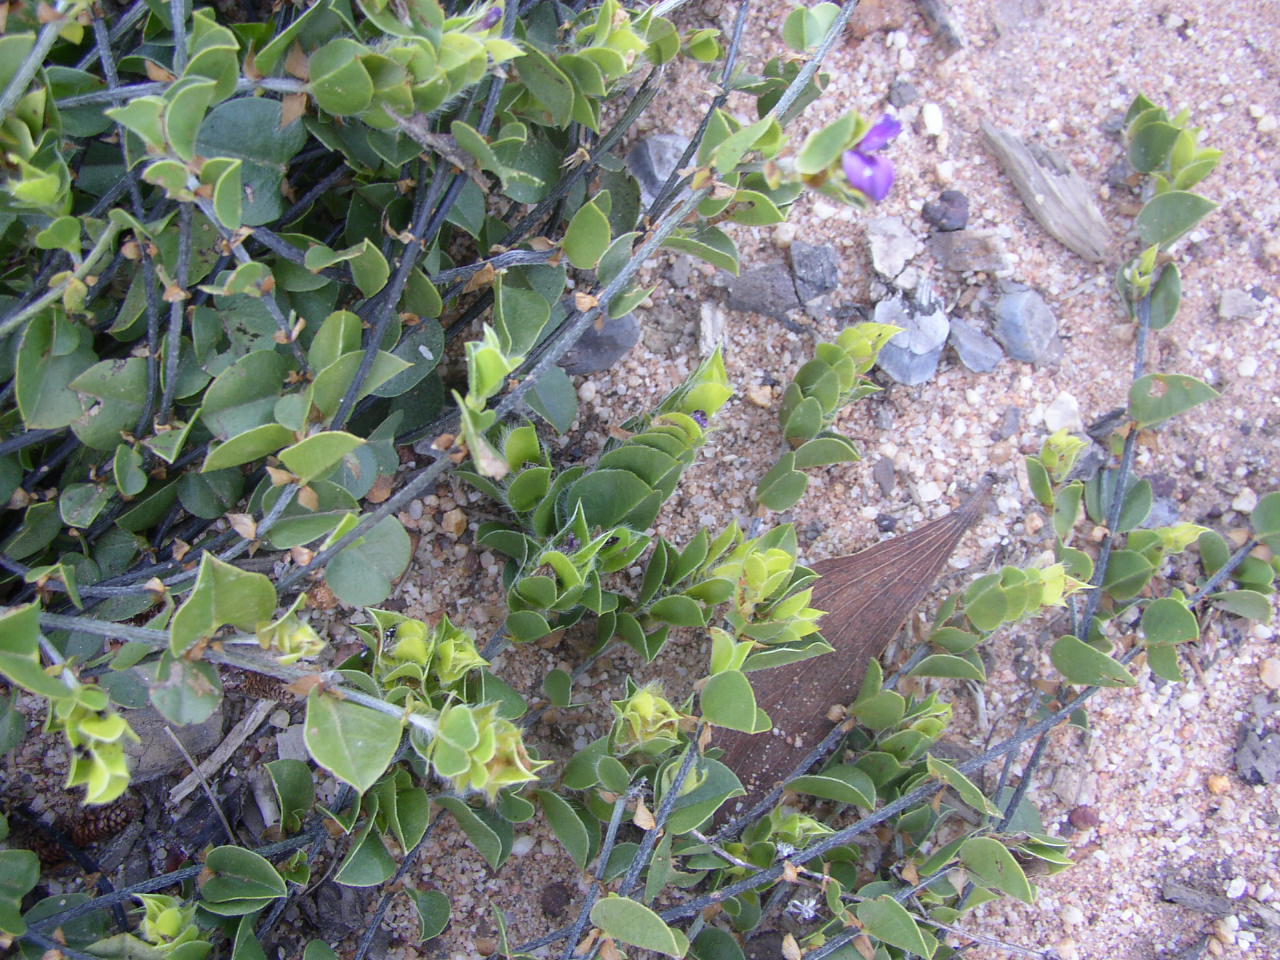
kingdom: Plantae
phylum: Tracheophyta
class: Magnoliopsida
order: Fabales
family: Fabaceae
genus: Psoralea
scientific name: Psoralea imbricata
